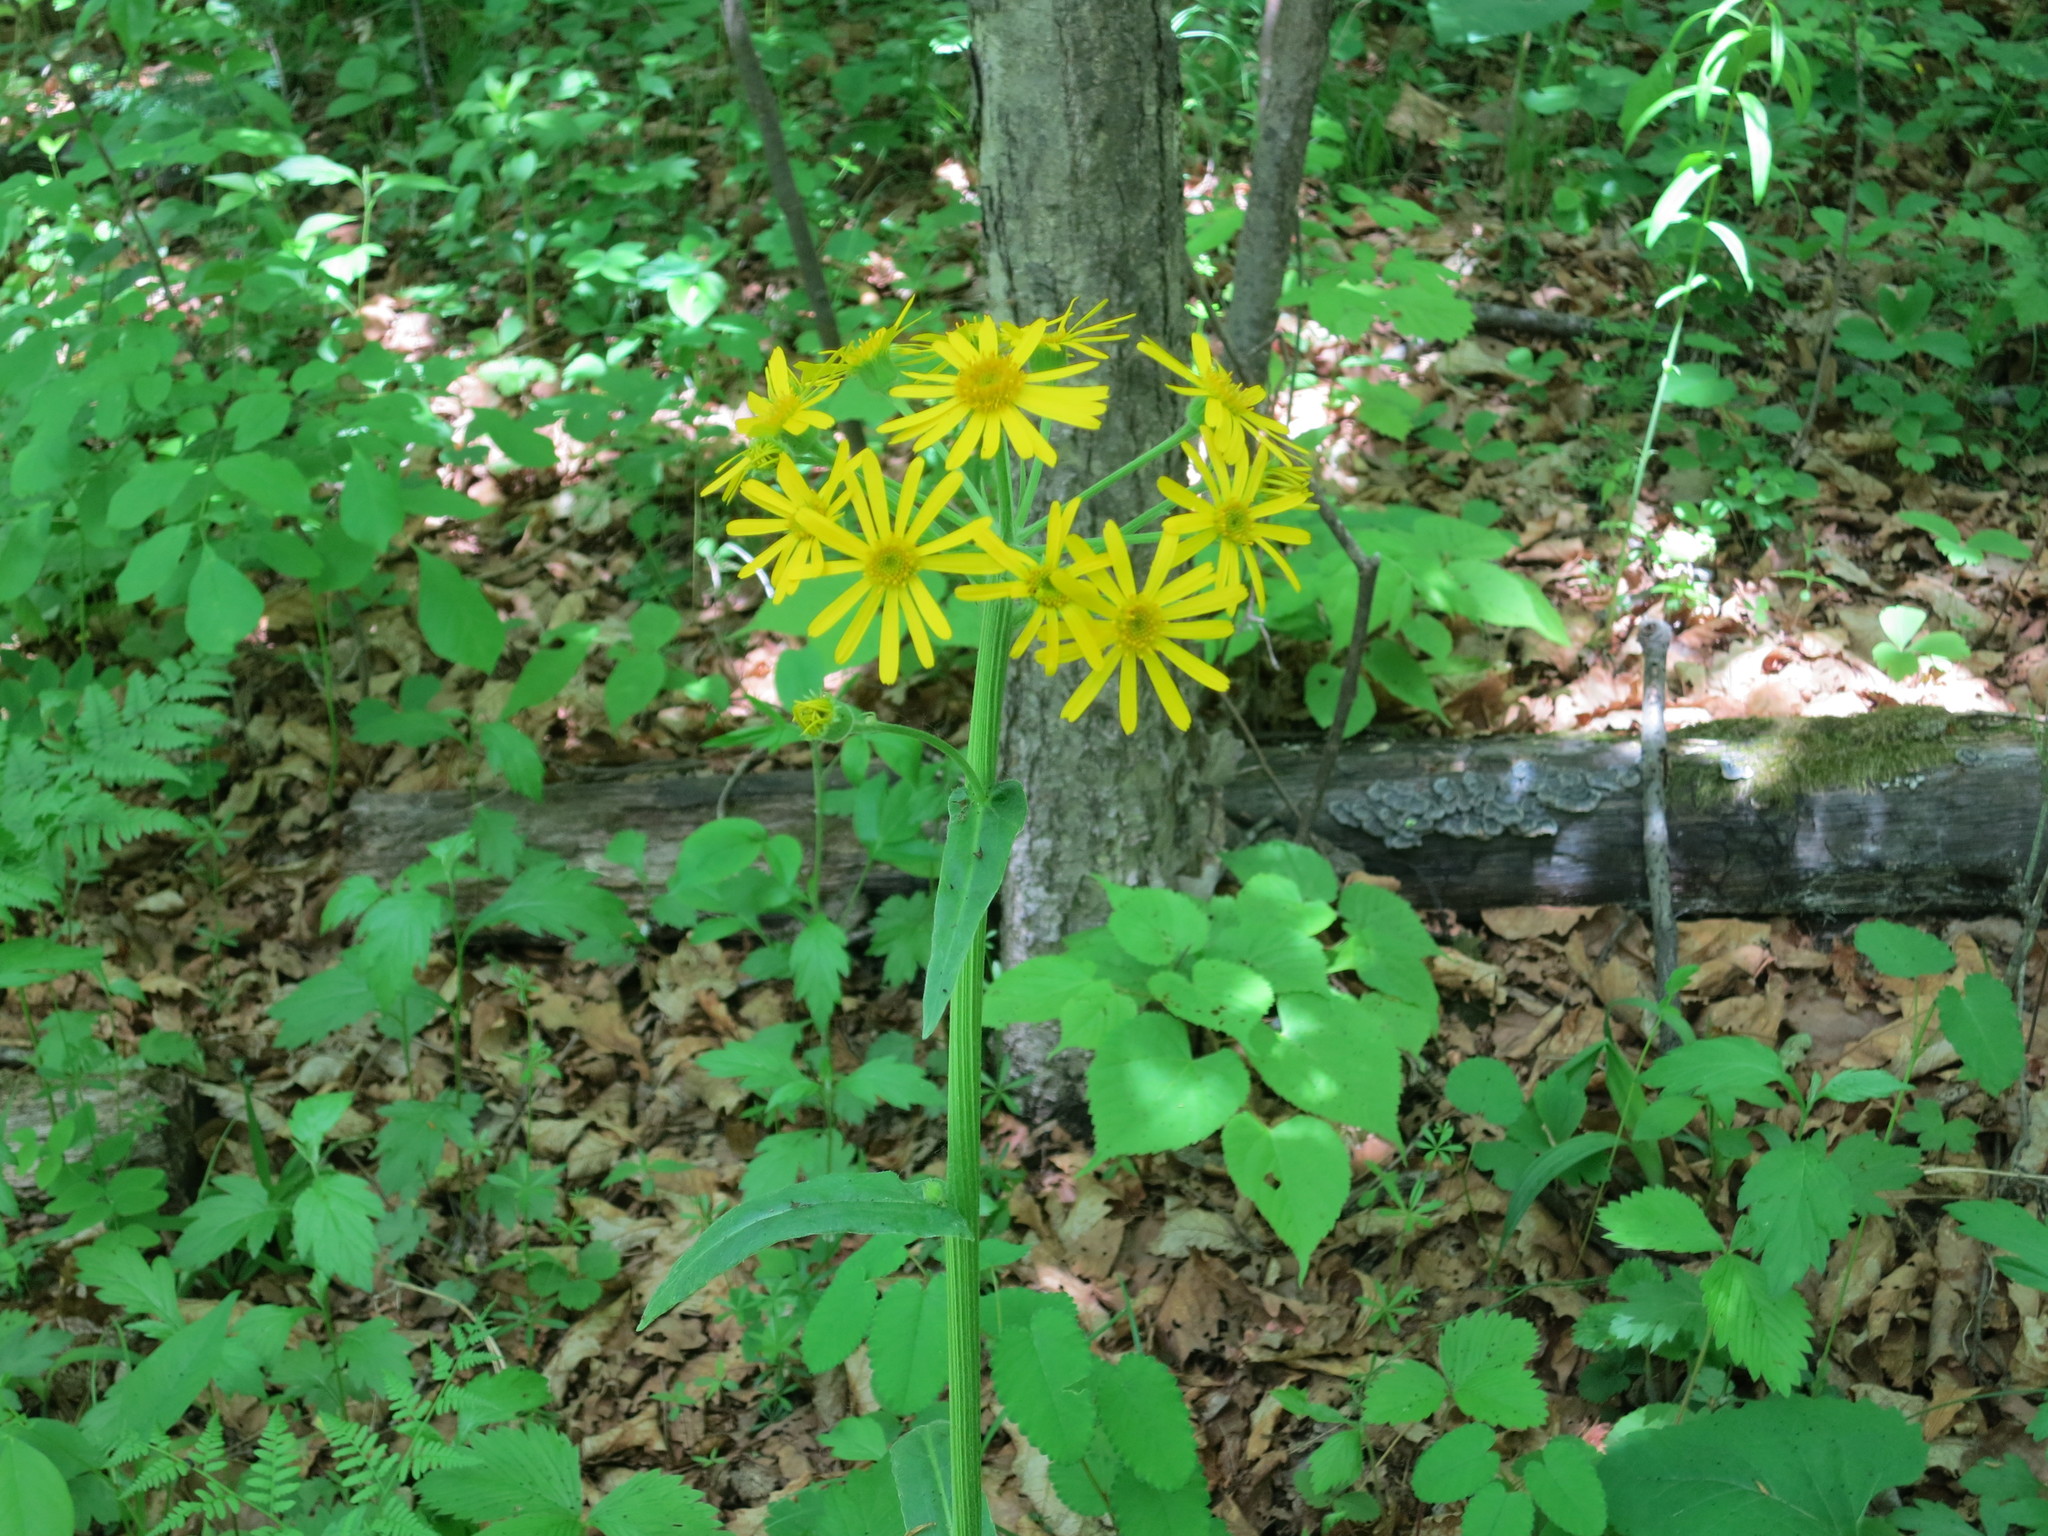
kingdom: Plantae
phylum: Tracheophyta
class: Magnoliopsida
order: Asterales
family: Asteraceae
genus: Tephroseris
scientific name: Tephroseris kirilowii
